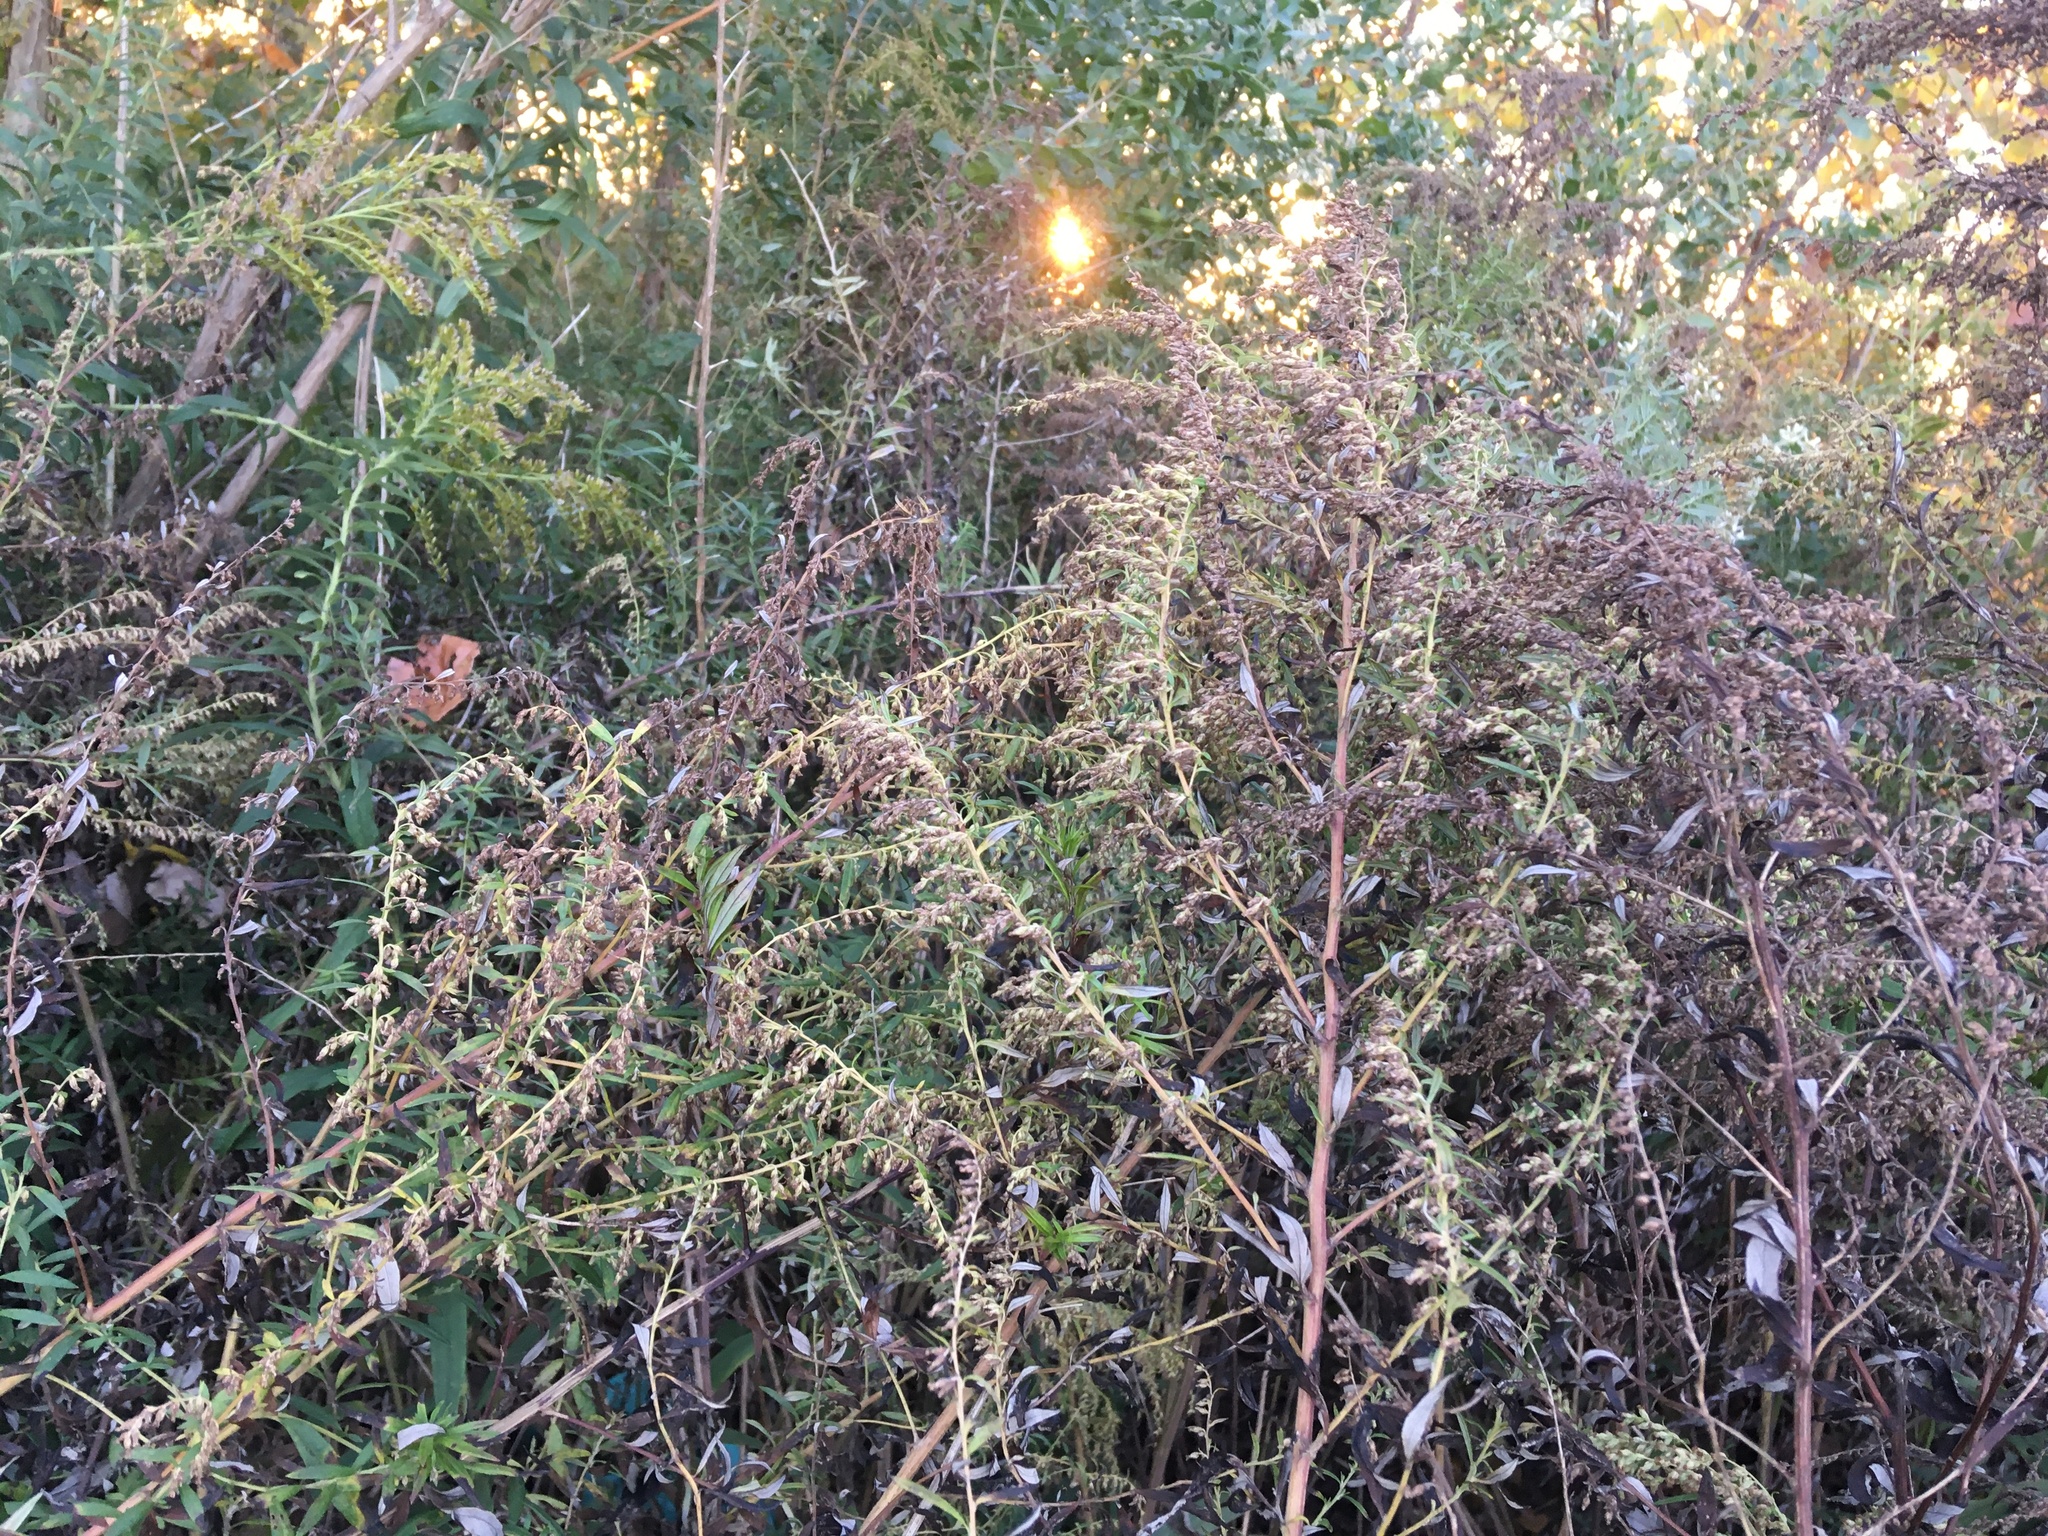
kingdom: Plantae
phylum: Tracheophyta
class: Magnoliopsida
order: Asterales
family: Asteraceae
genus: Artemisia
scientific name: Artemisia vulgaris
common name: Mugwort
